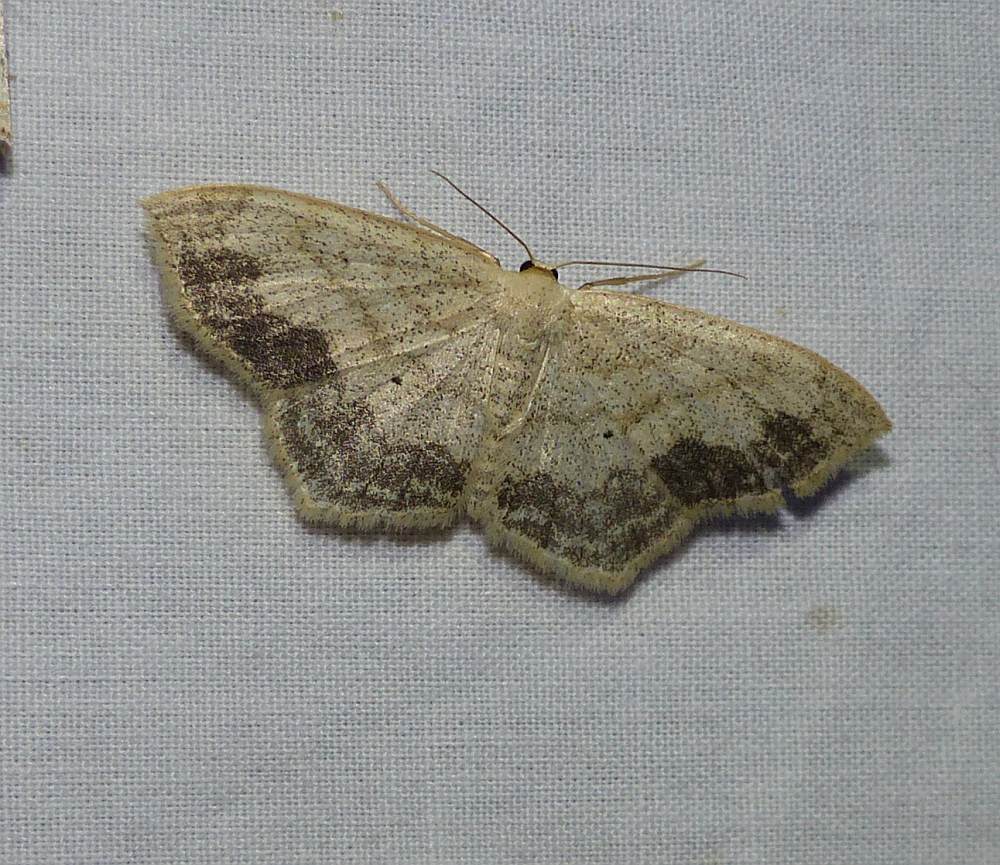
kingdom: Animalia
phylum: Arthropoda
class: Insecta
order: Lepidoptera
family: Geometridae
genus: Scopula
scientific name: Scopula limboundata
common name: Large lace border
